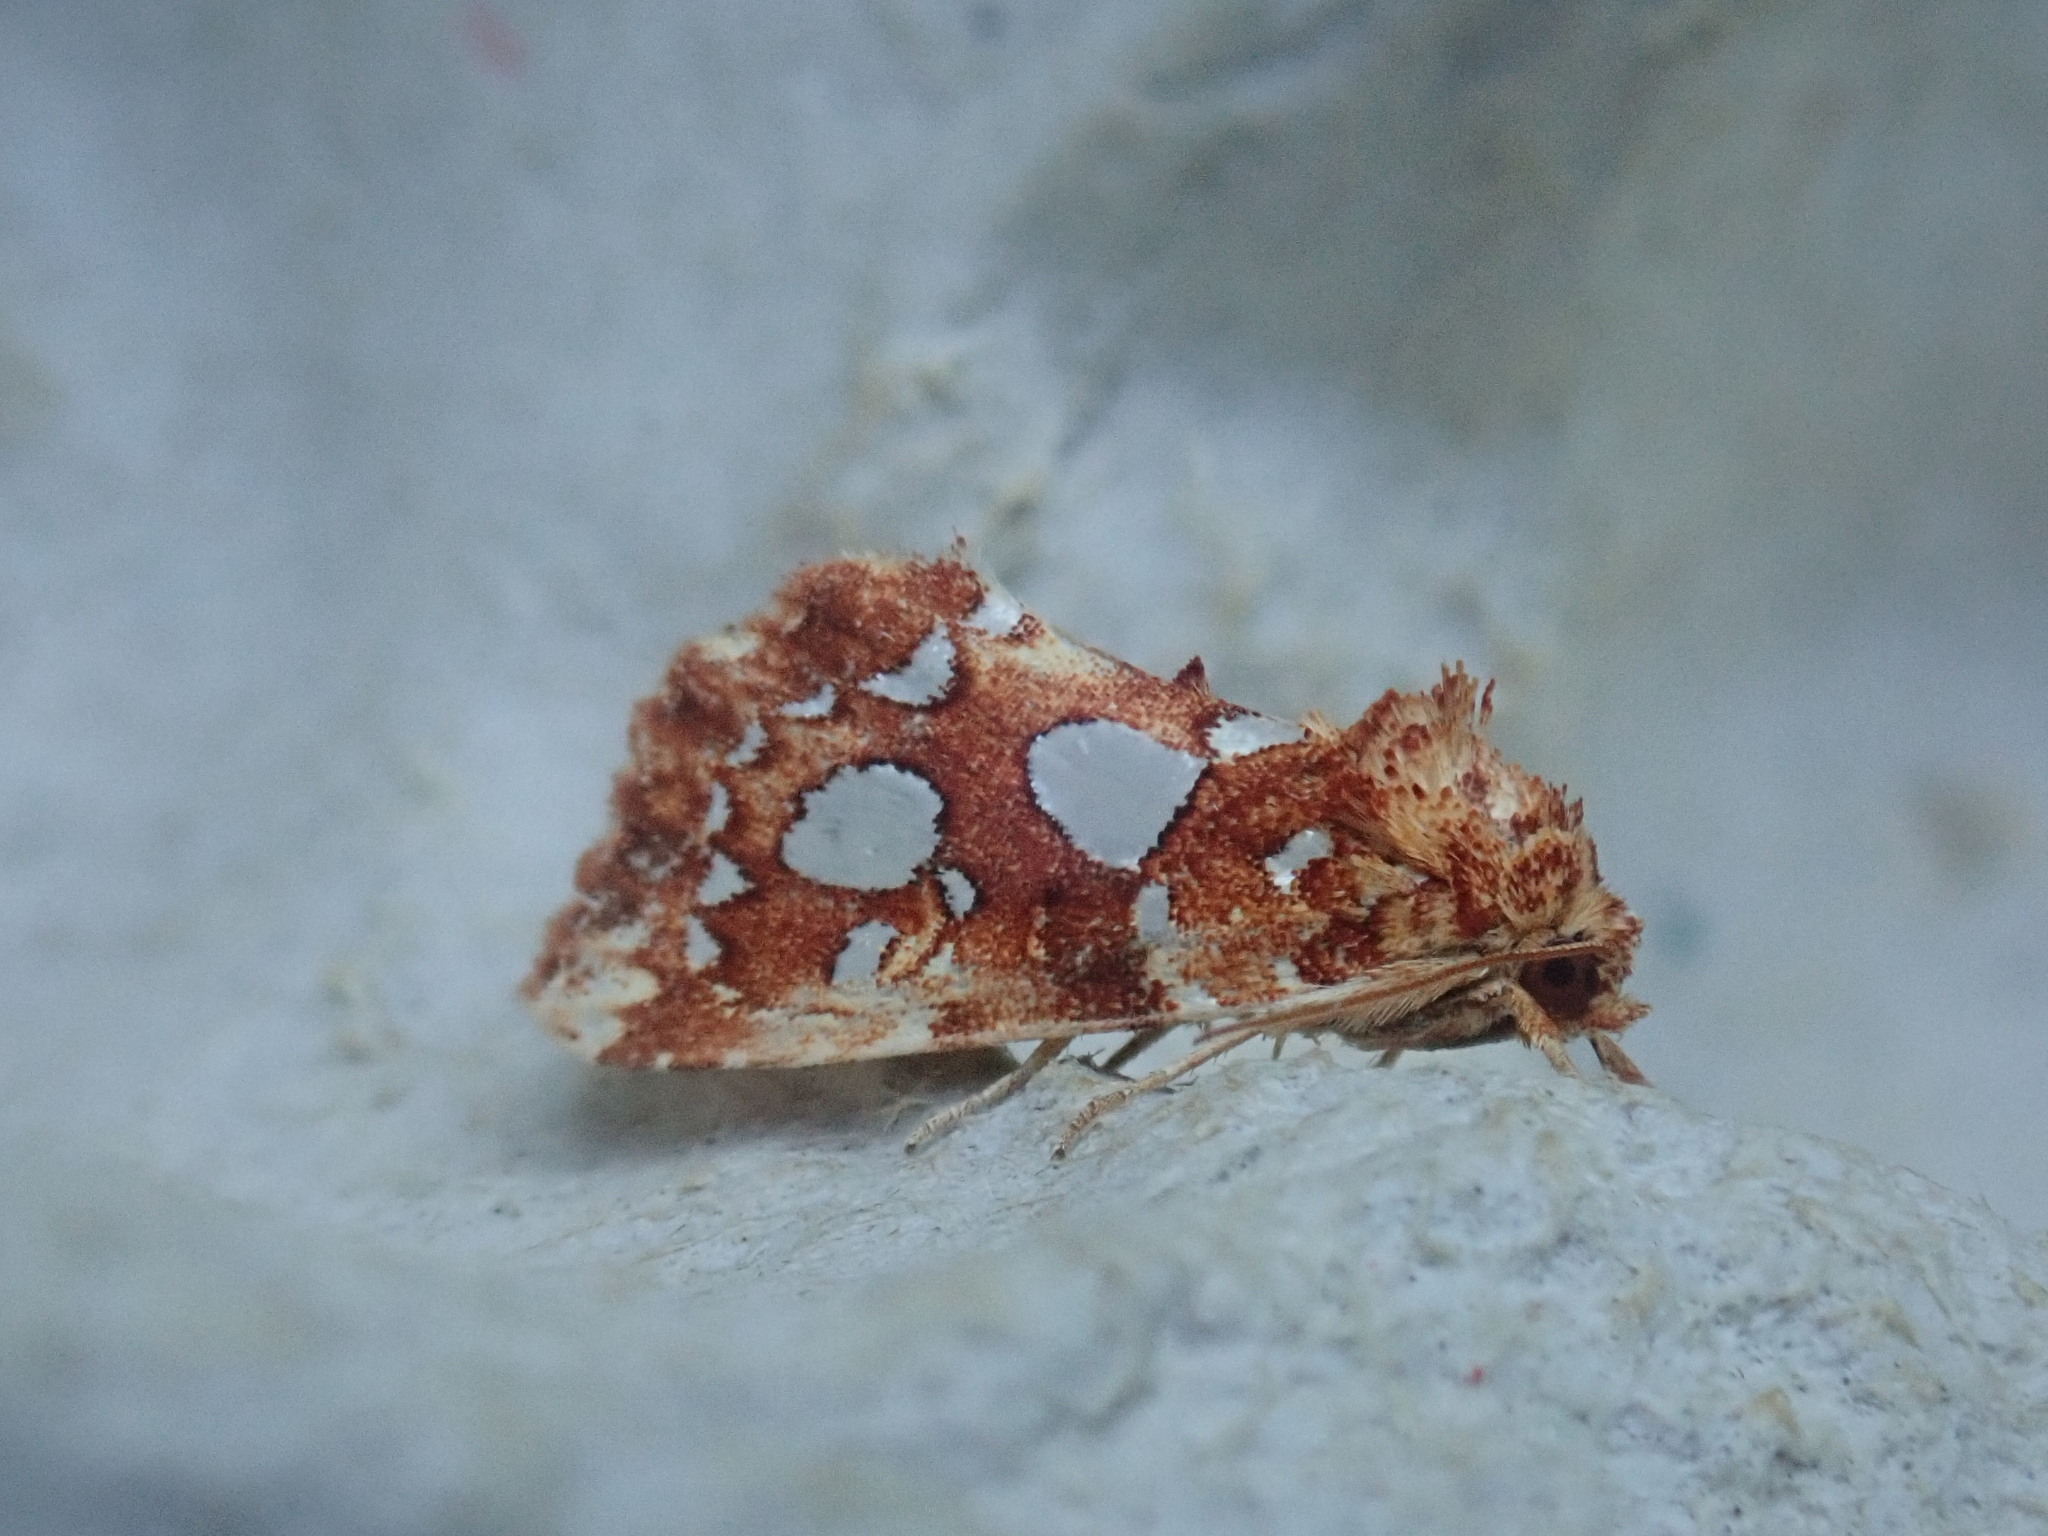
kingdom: Animalia
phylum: Arthropoda
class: Insecta
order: Lepidoptera
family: Noctuidae
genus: Callopistria
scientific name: Callopistria cordata
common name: Silver-spotted fern moth
